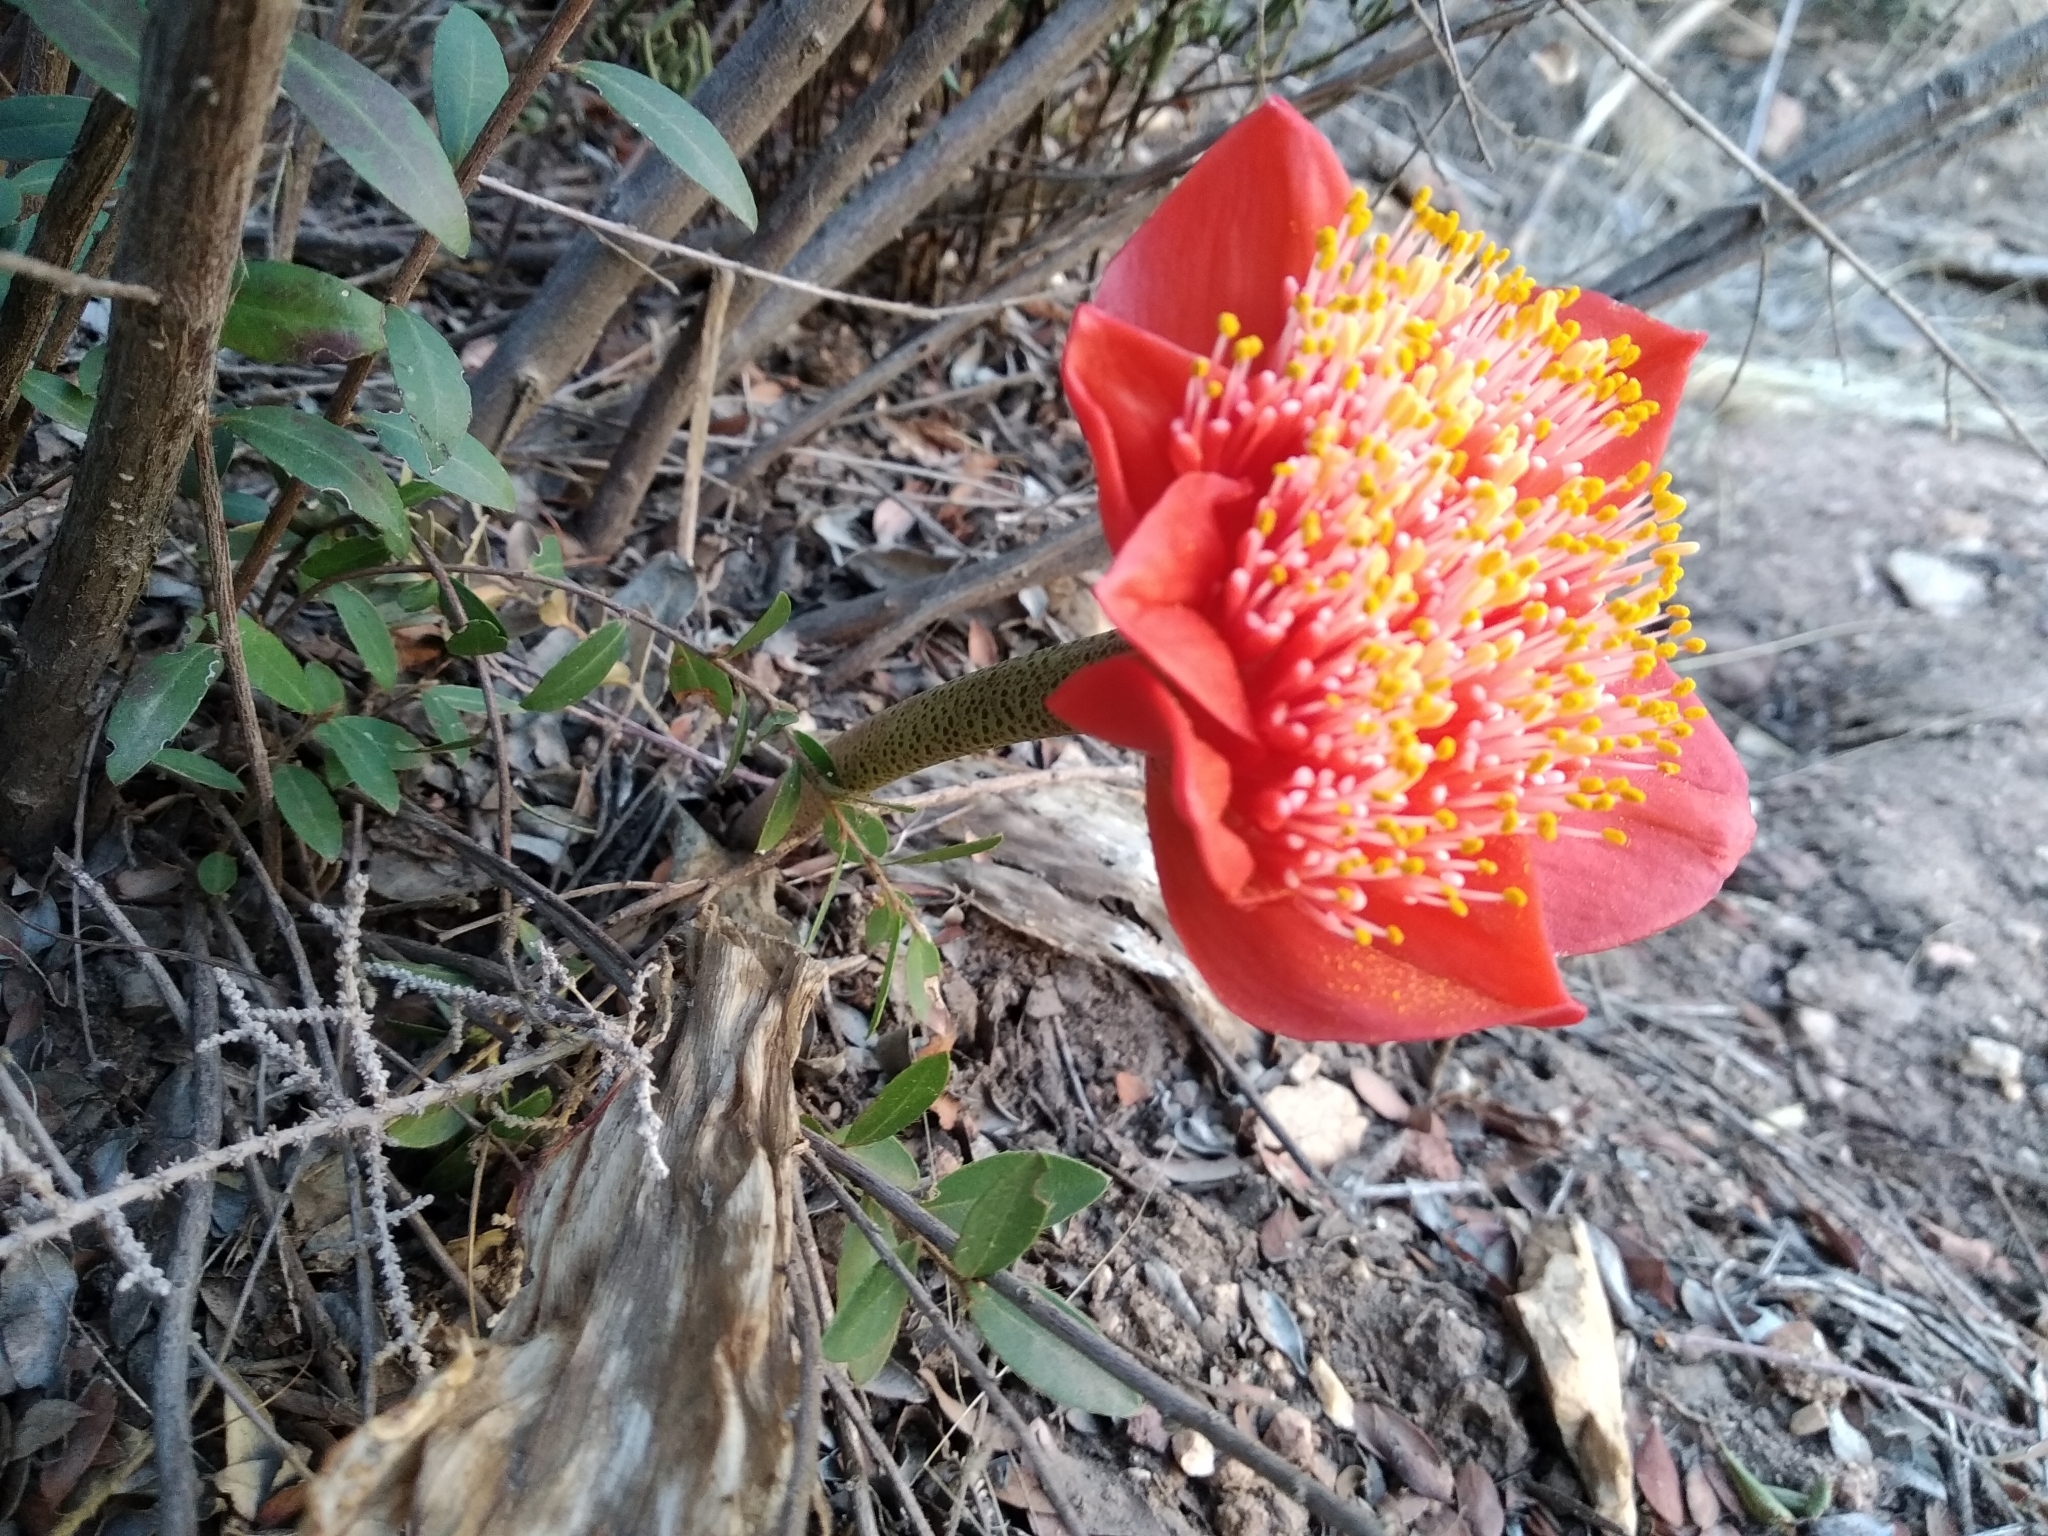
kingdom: Plantae
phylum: Tracheophyta
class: Liliopsida
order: Asparagales
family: Amaryllidaceae
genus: Haemanthus
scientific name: Haemanthus coccineus
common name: Cape-tulip
